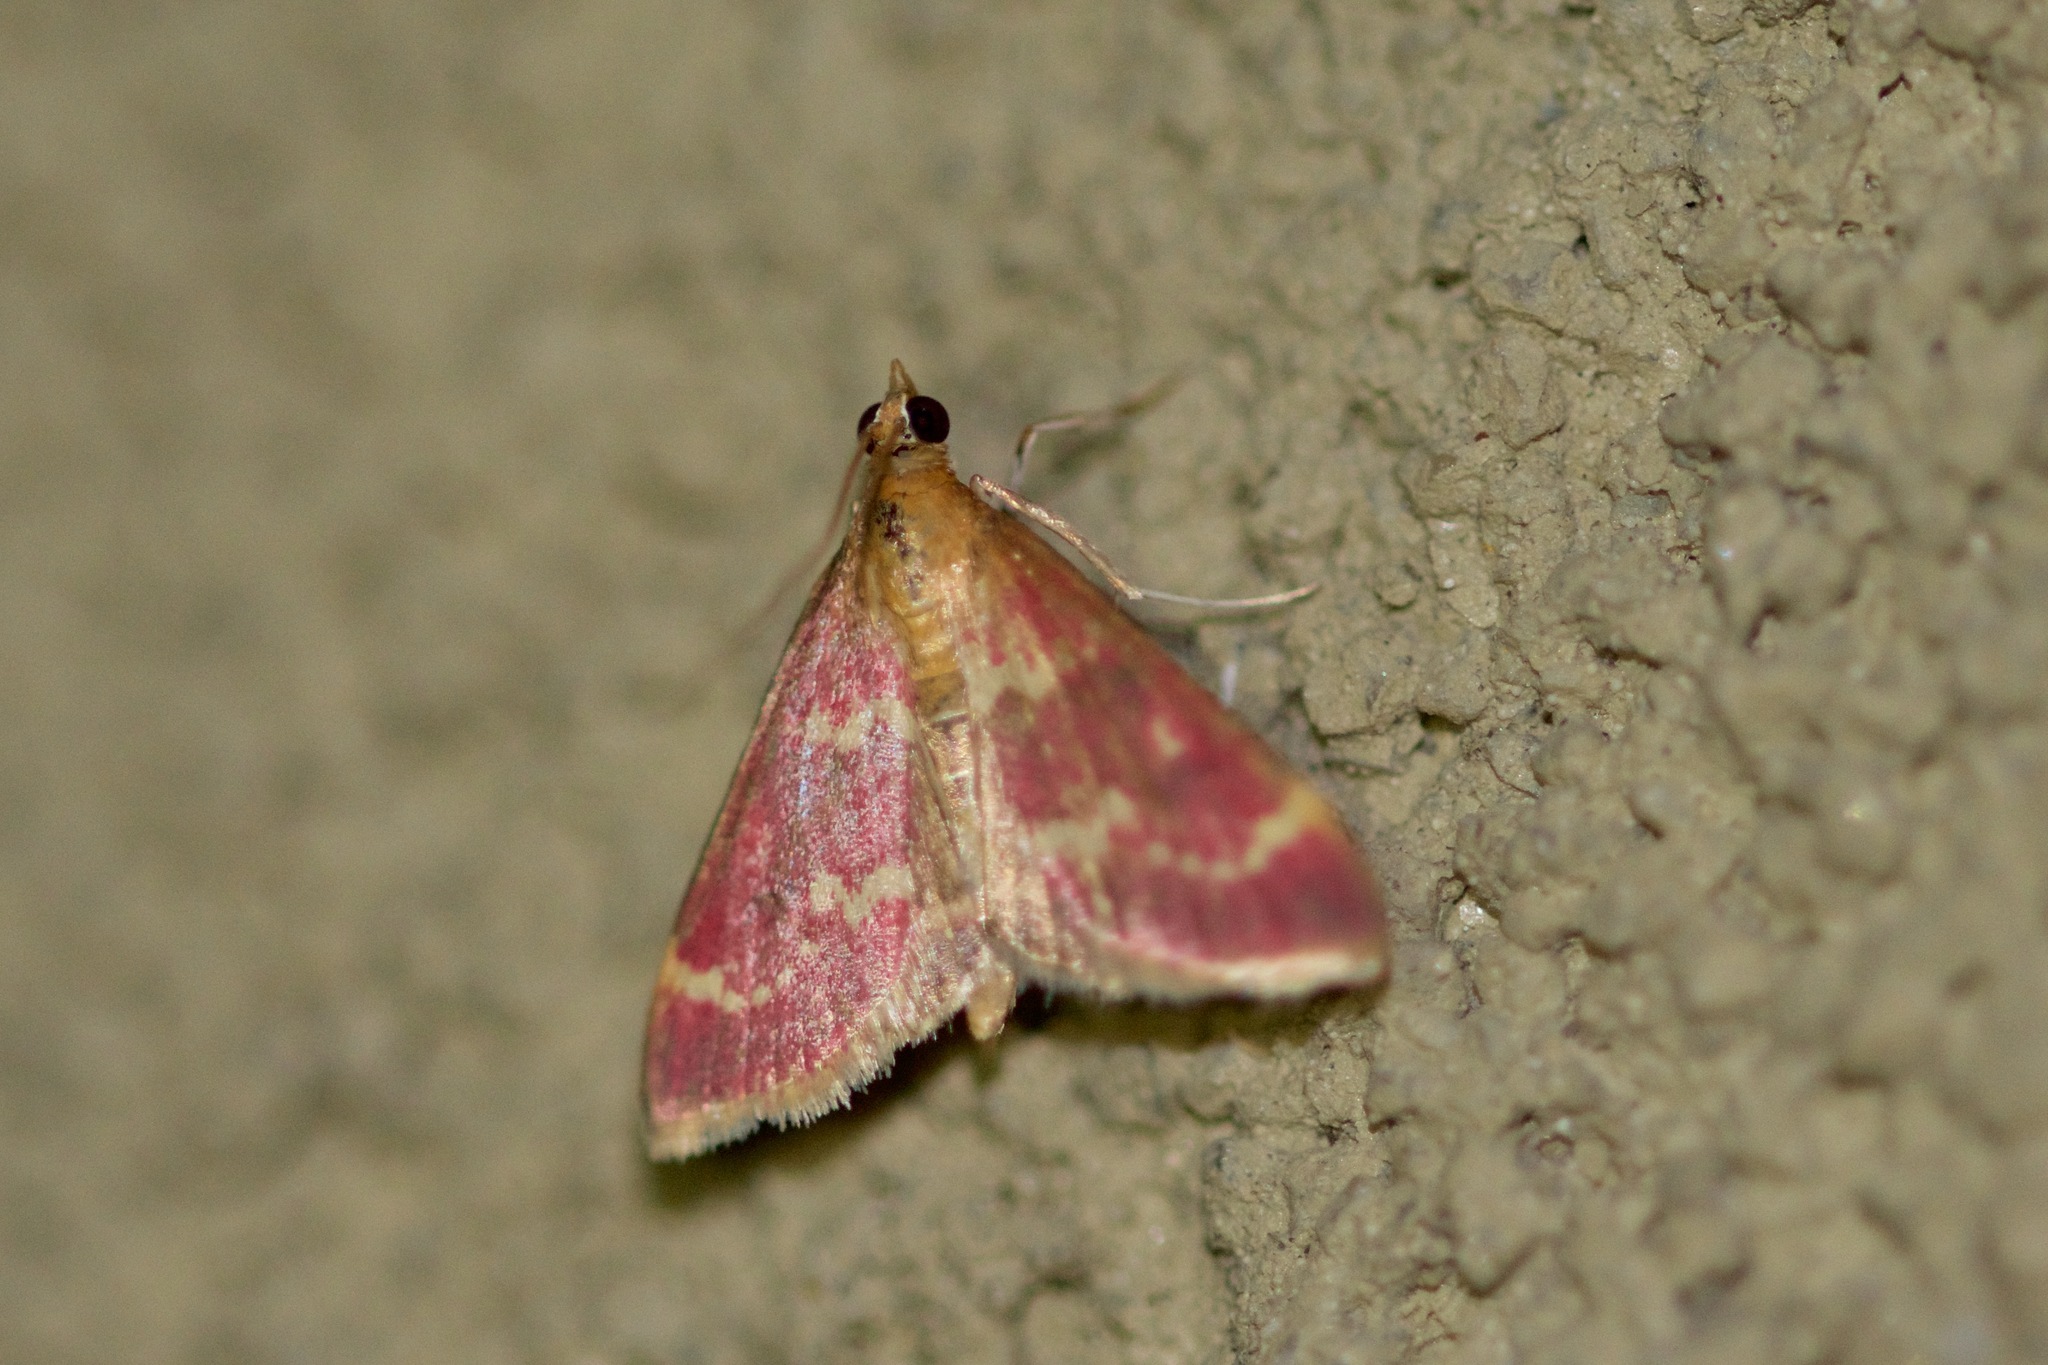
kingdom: Animalia
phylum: Arthropoda
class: Insecta
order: Lepidoptera
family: Crambidae
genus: Pyrausta
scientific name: Pyrausta signatalis
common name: Raspberry pyrausta moth
